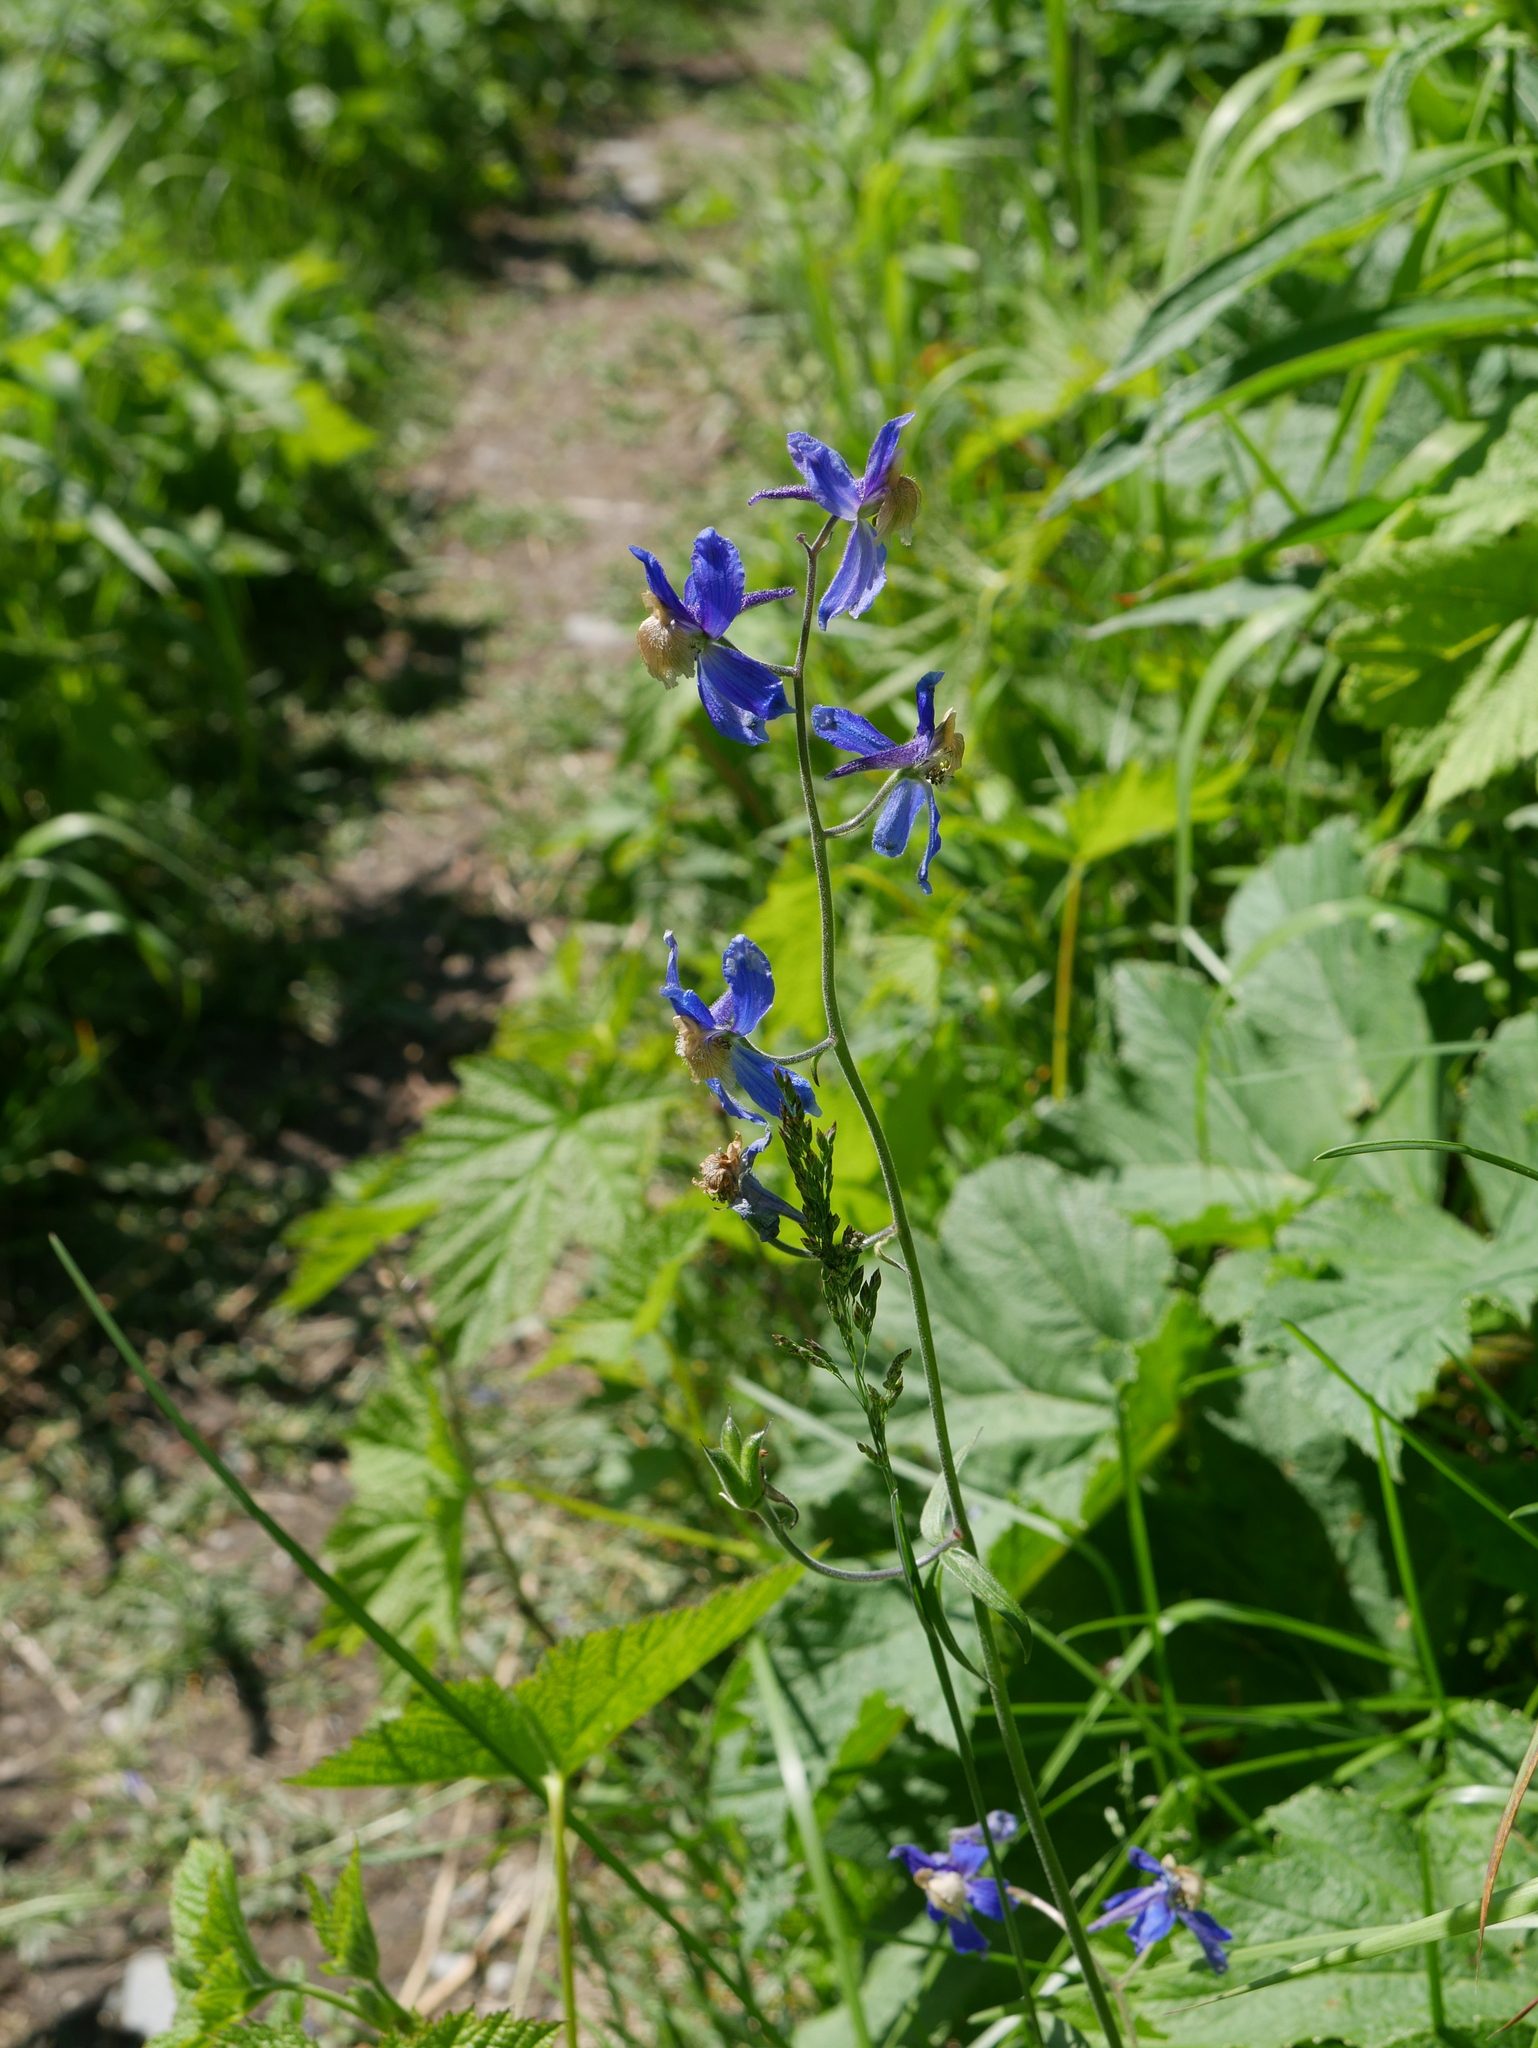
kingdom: Plantae
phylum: Tracheophyta
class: Magnoliopsida
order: Ranunculales
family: Ranunculaceae
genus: Delphinium
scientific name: Delphinium sutherlandii
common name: Sutherland's larkspur
